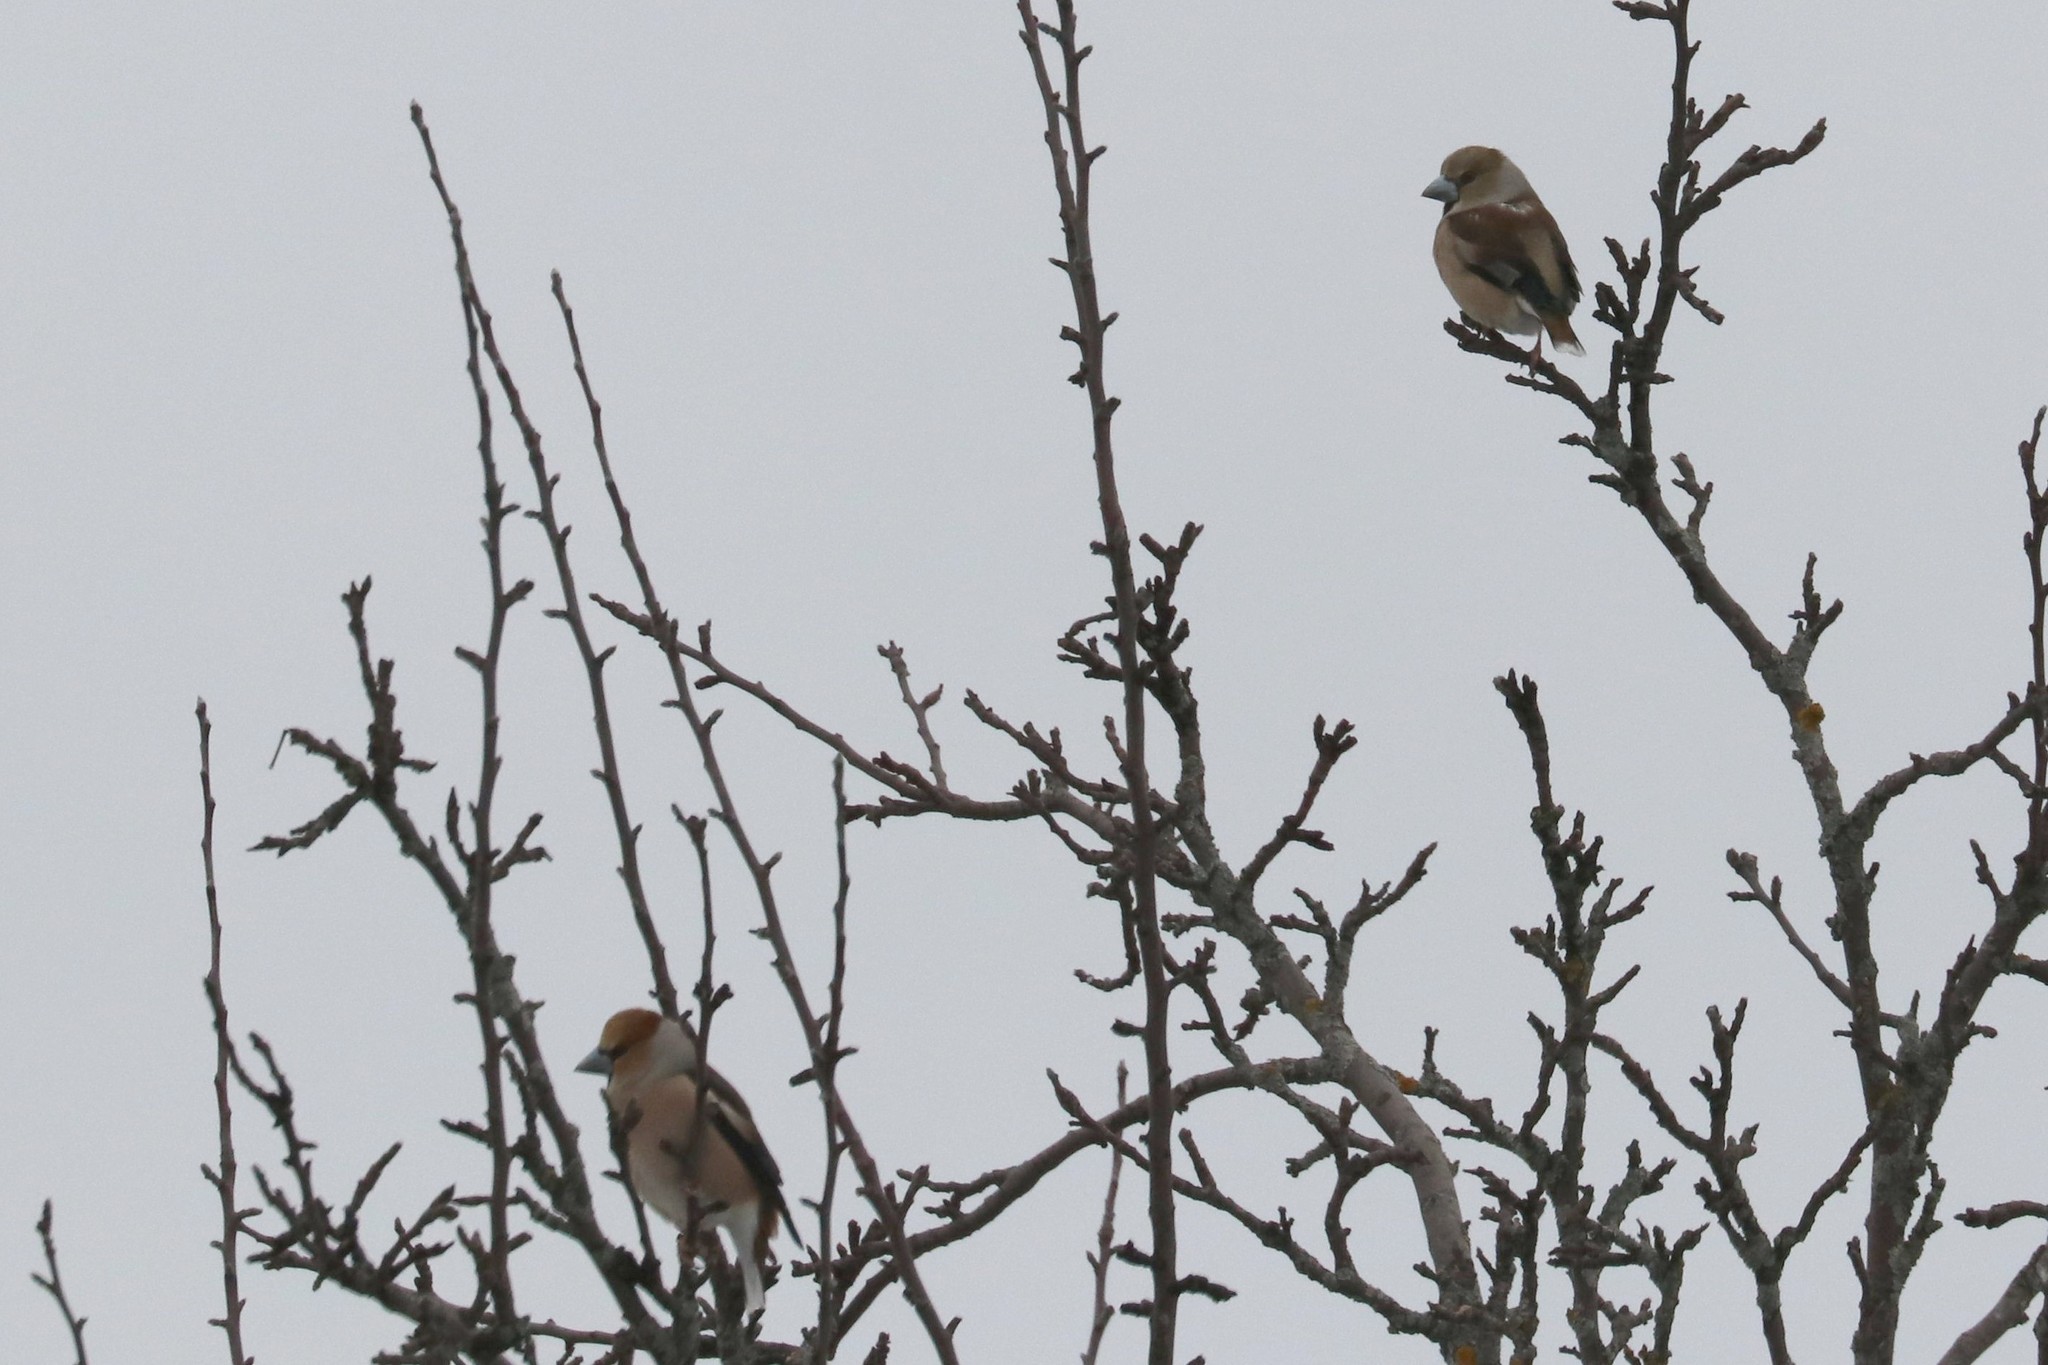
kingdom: Animalia
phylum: Chordata
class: Aves
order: Passeriformes
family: Fringillidae
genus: Coccothraustes
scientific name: Coccothraustes coccothraustes
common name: Hawfinch
